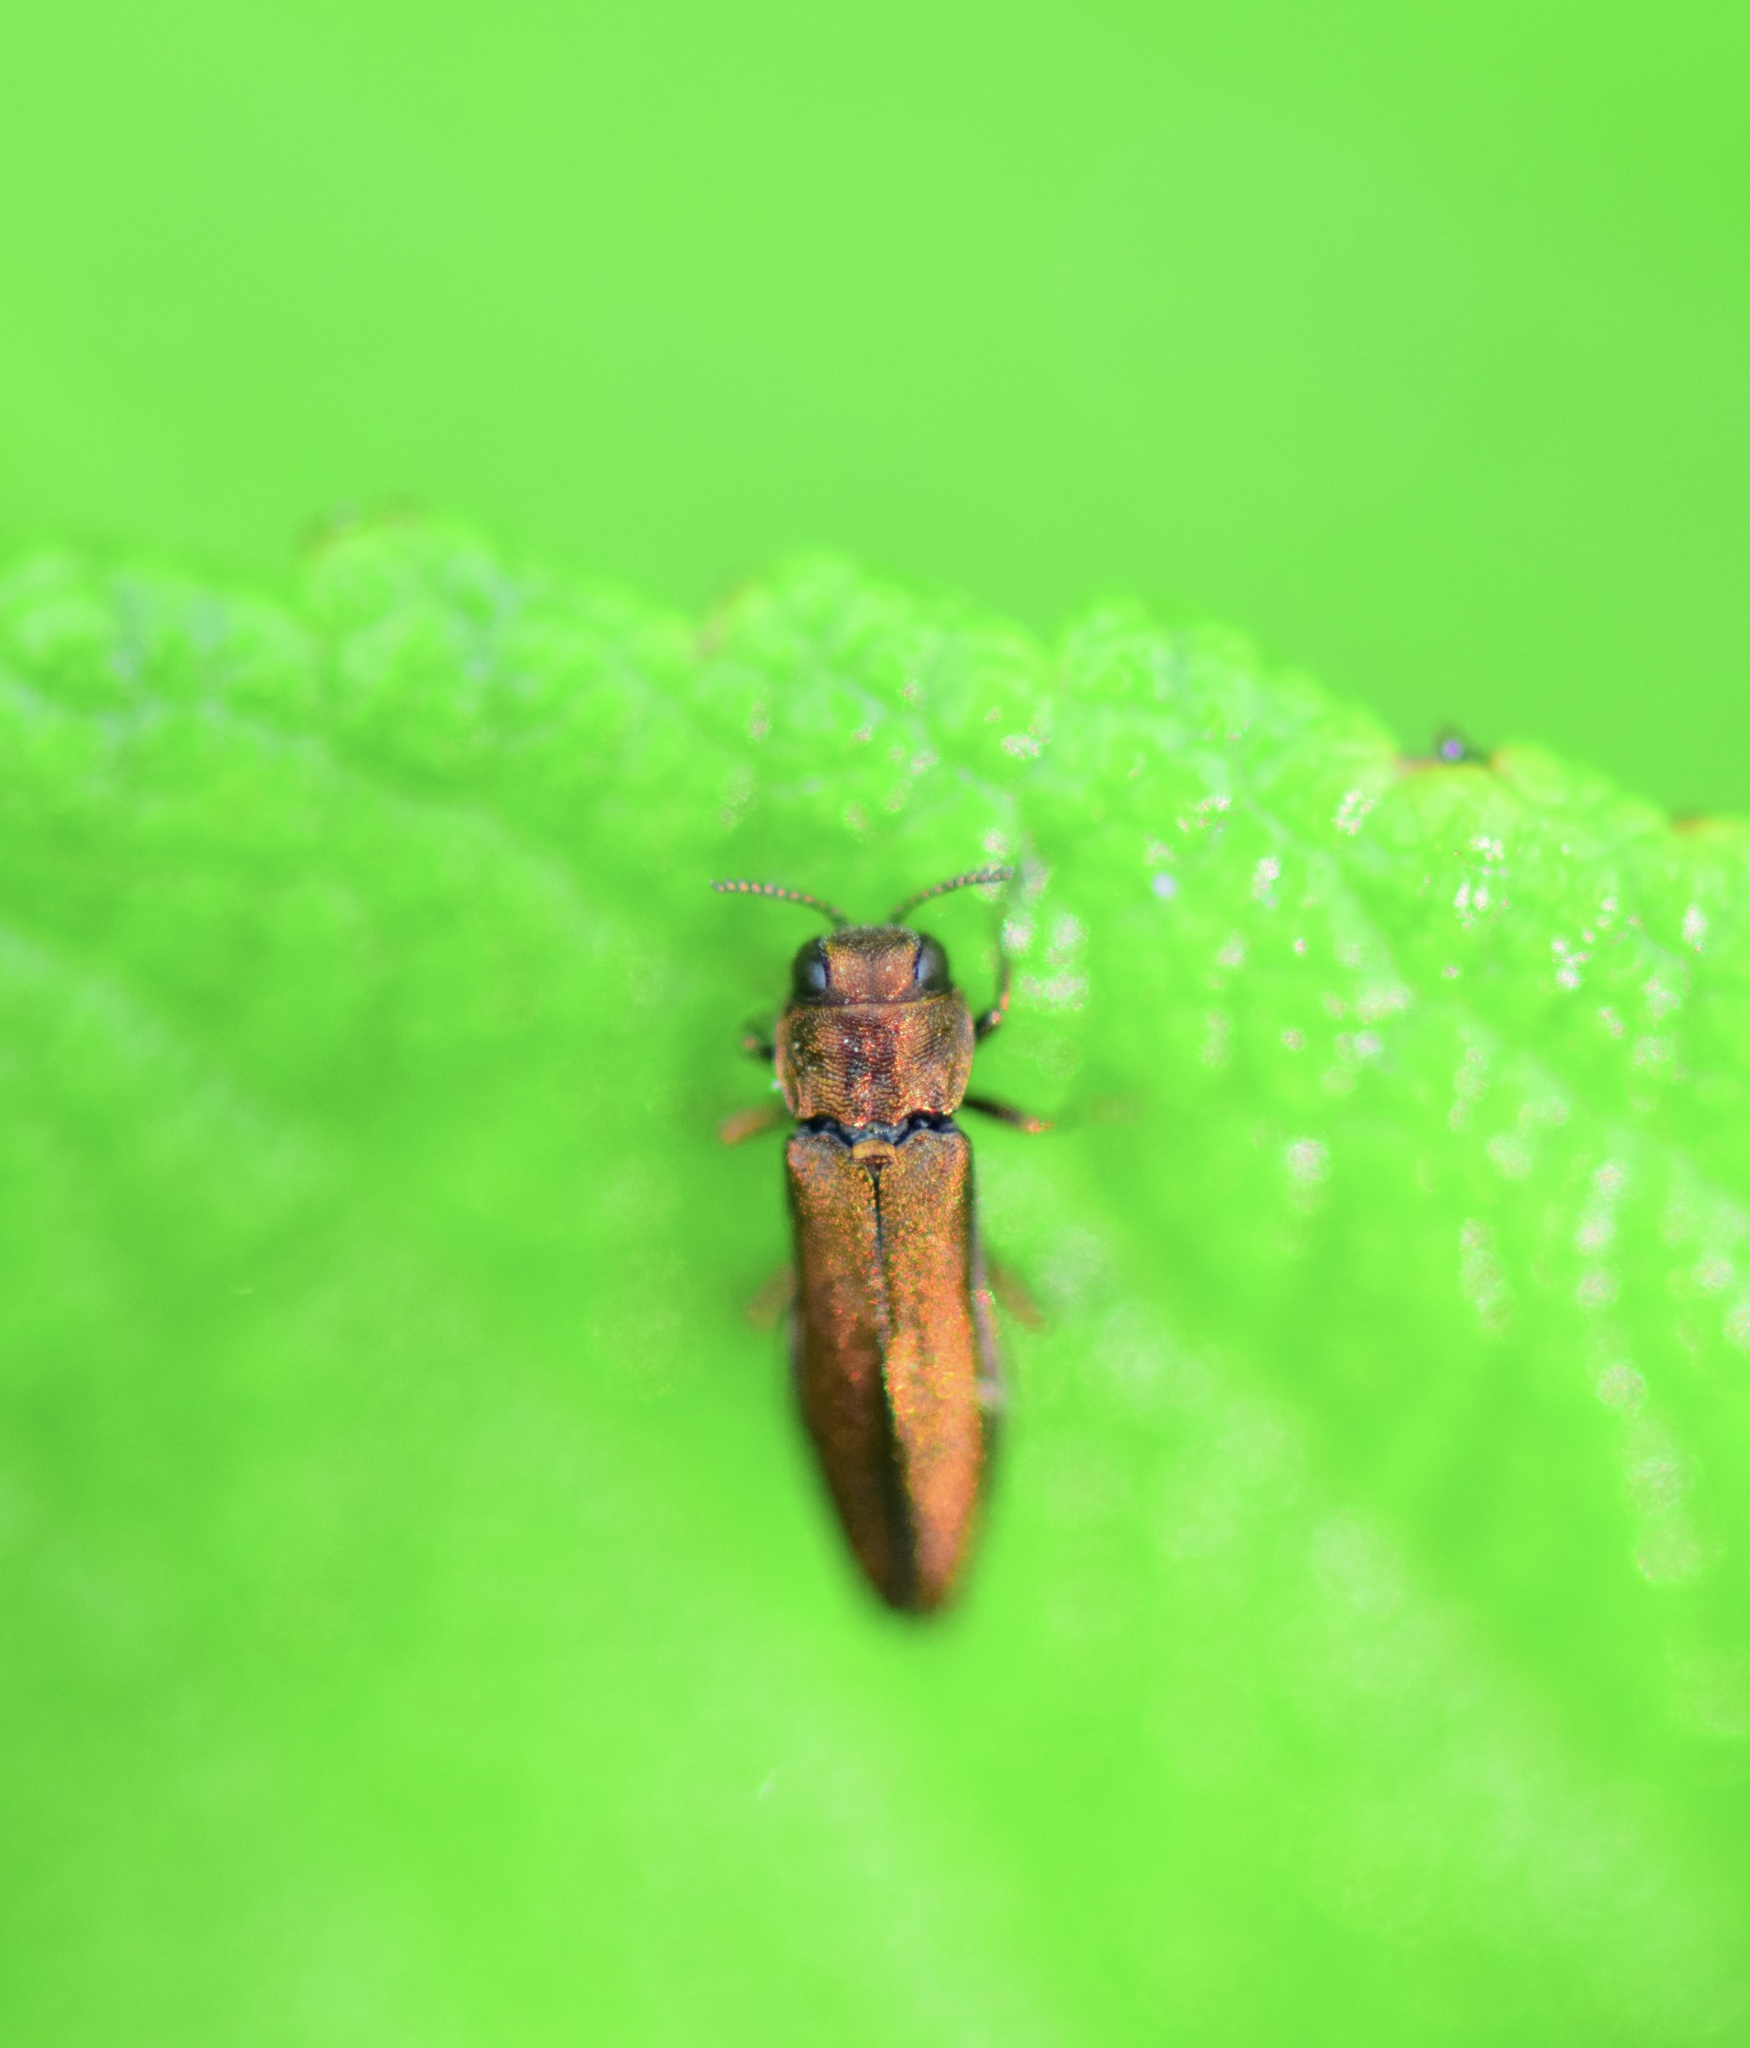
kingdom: Animalia
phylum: Arthropoda
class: Insecta
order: Coleoptera
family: Buprestidae
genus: Agrilus
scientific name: Agrilus cuprescens
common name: Rose stem girdler
